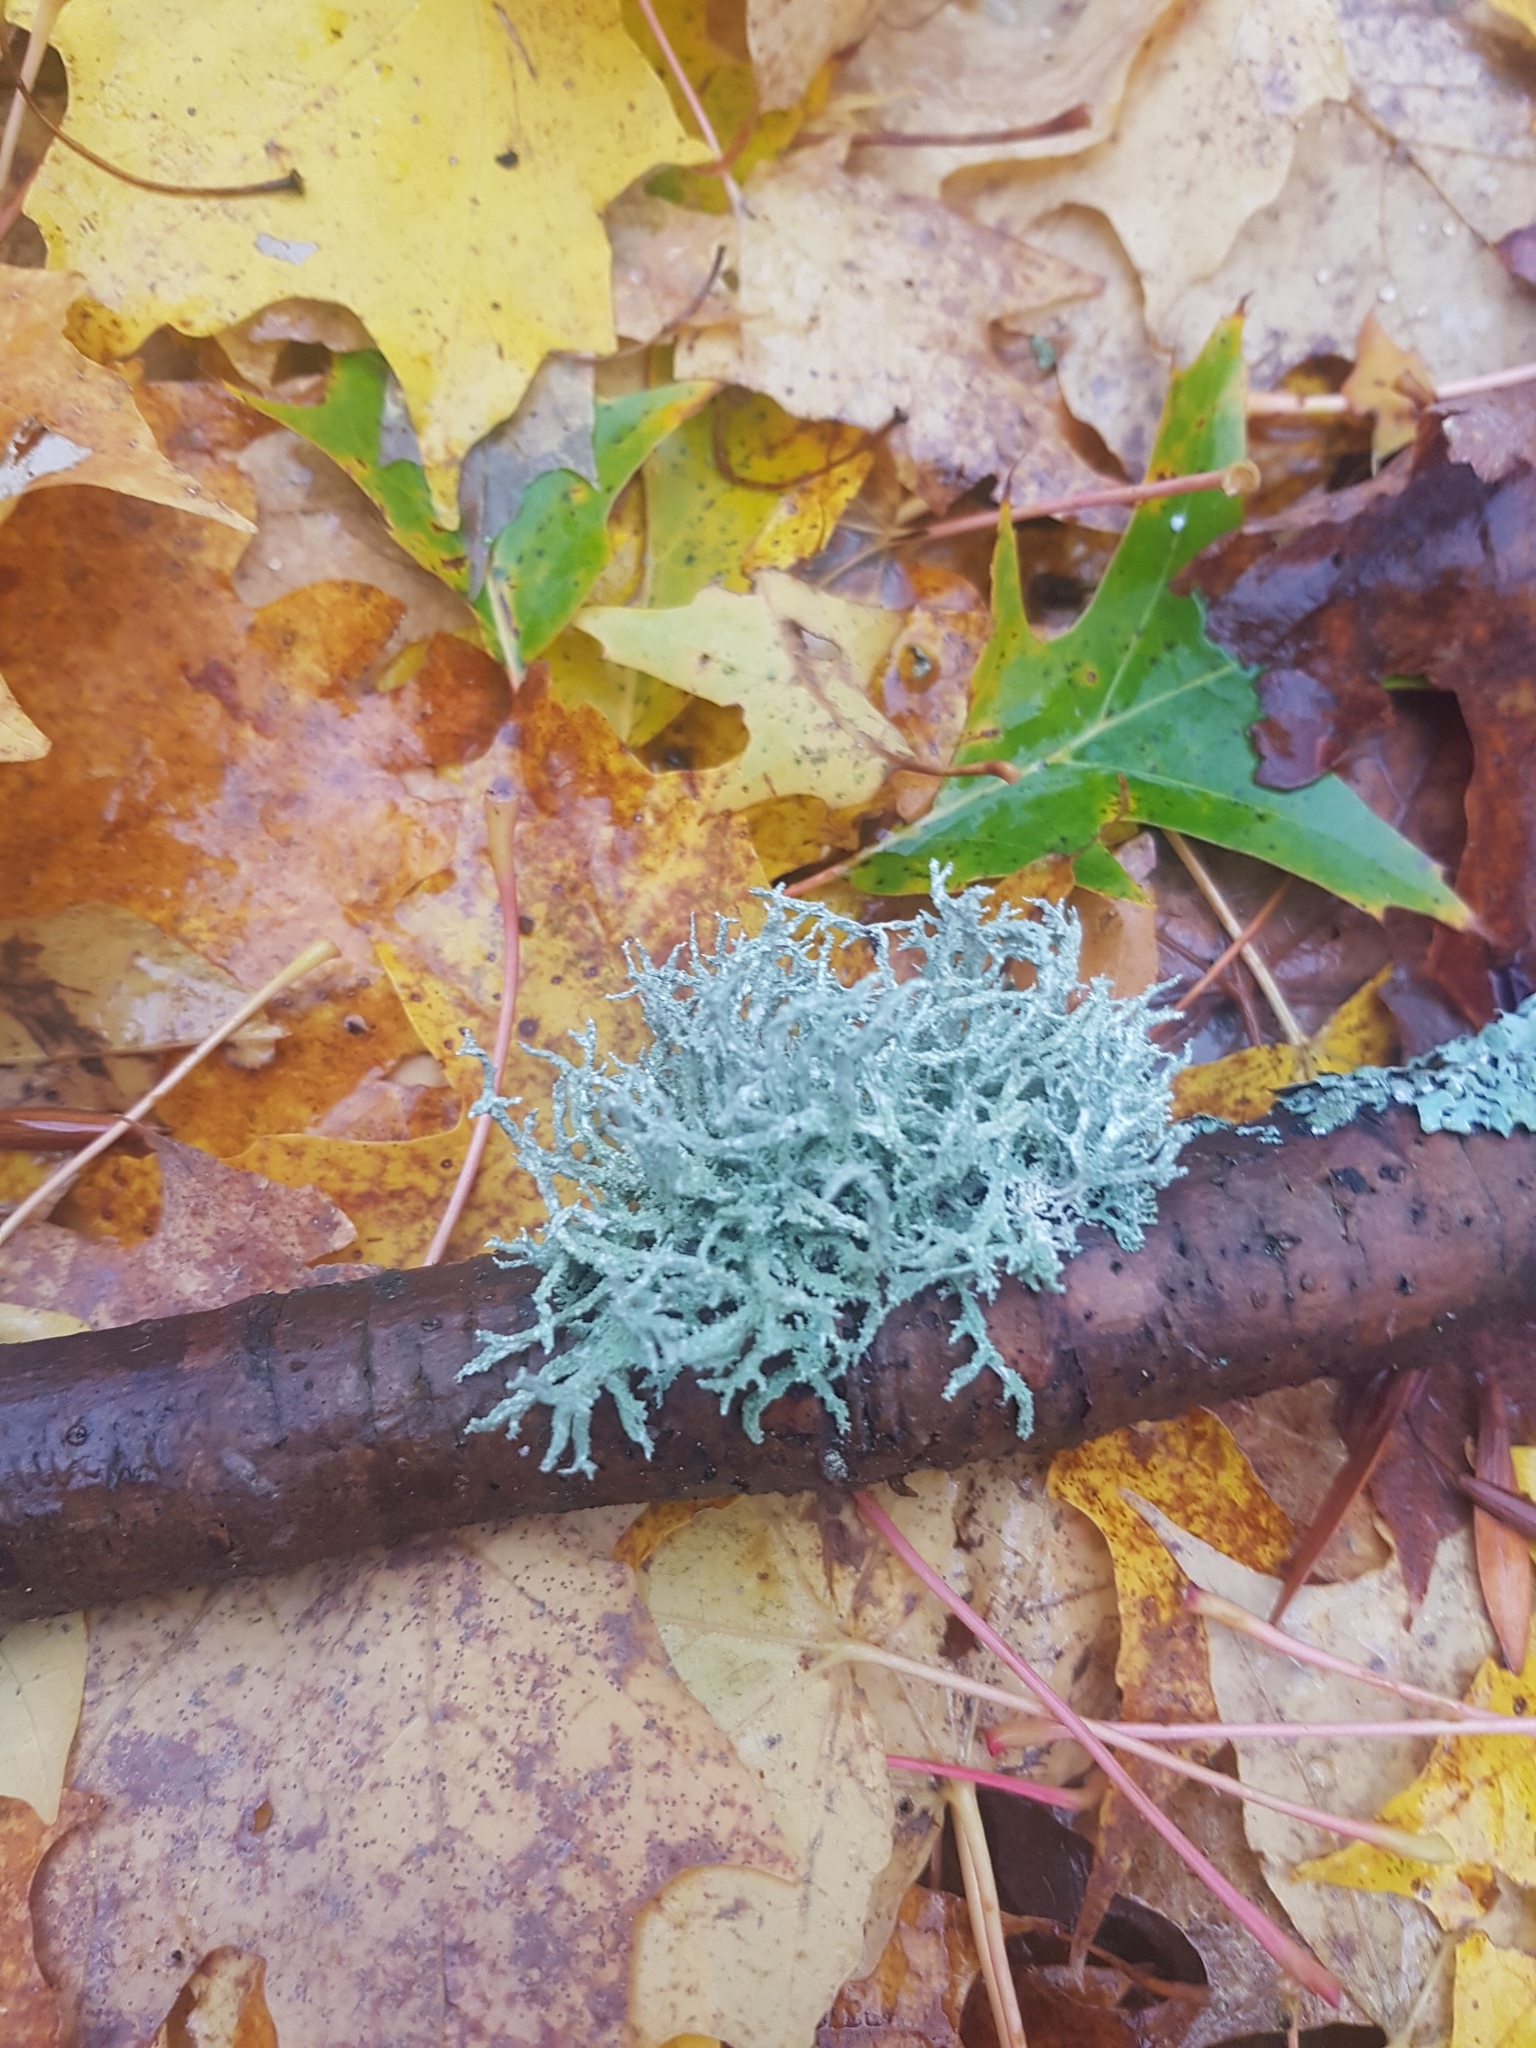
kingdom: Fungi
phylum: Ascomycota
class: Lecanoromycetes
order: Lecanorales
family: Parmeliaceae
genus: Evernia
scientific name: Evernia mesomorpha
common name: Boreal oak moss lichen
